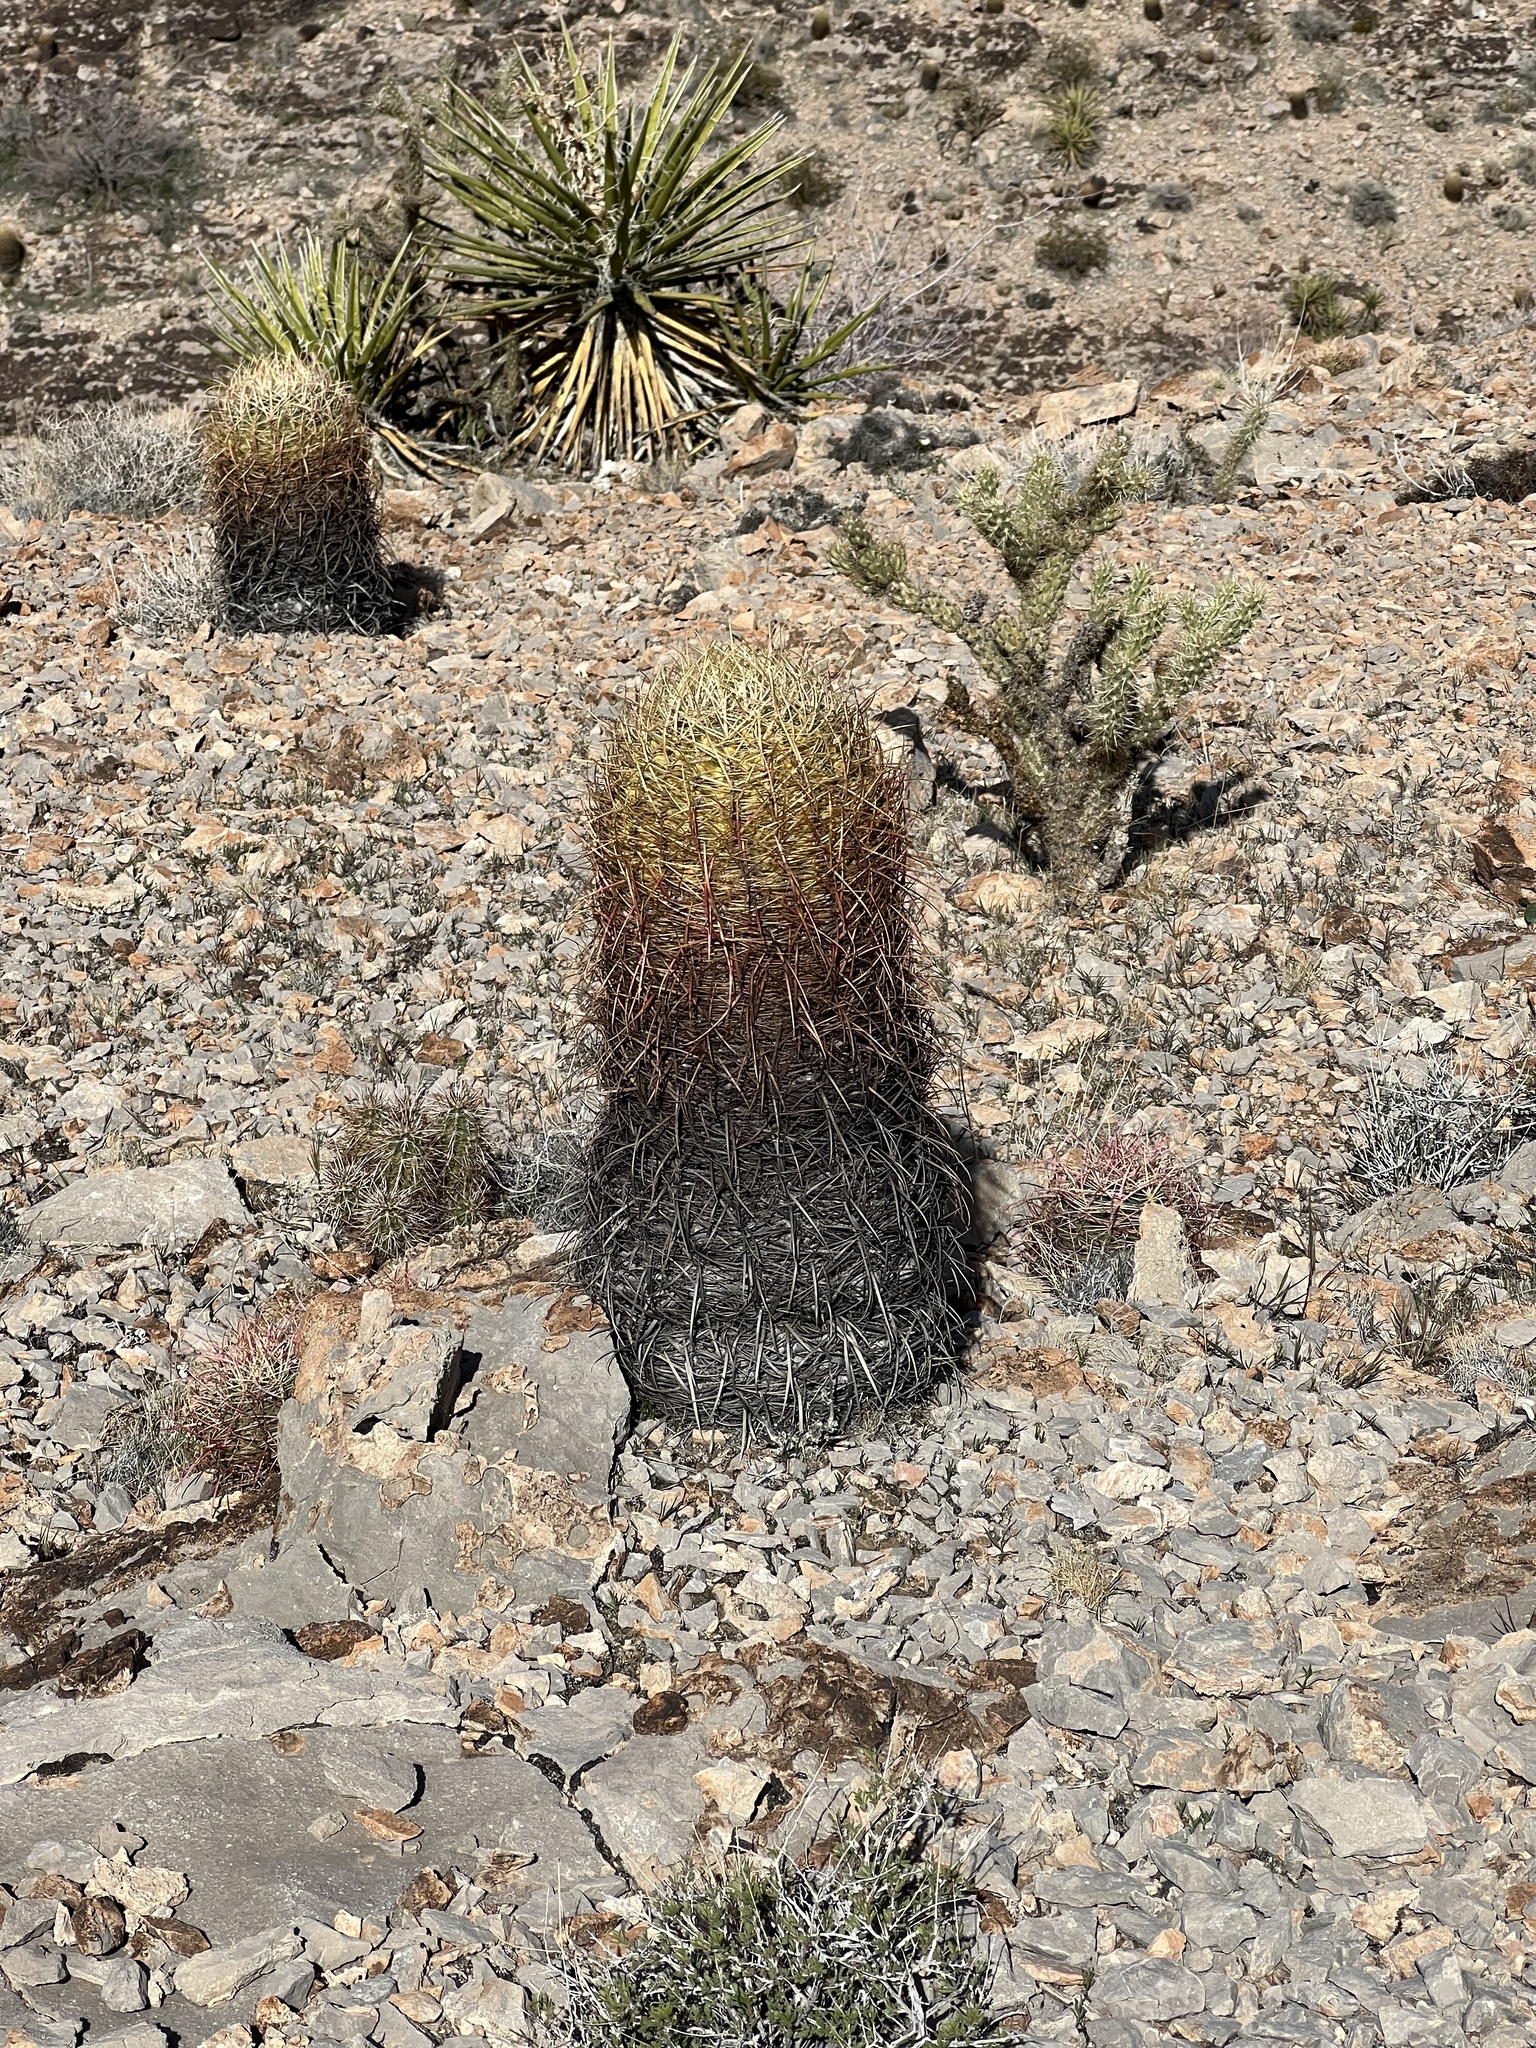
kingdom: Plantae
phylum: Tracheophyta
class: Magnoliopsida
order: Caryophyllales
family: Cactaceae
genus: Ferocactus
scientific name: Ferocactus cylindraceus
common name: California barrel cactus
